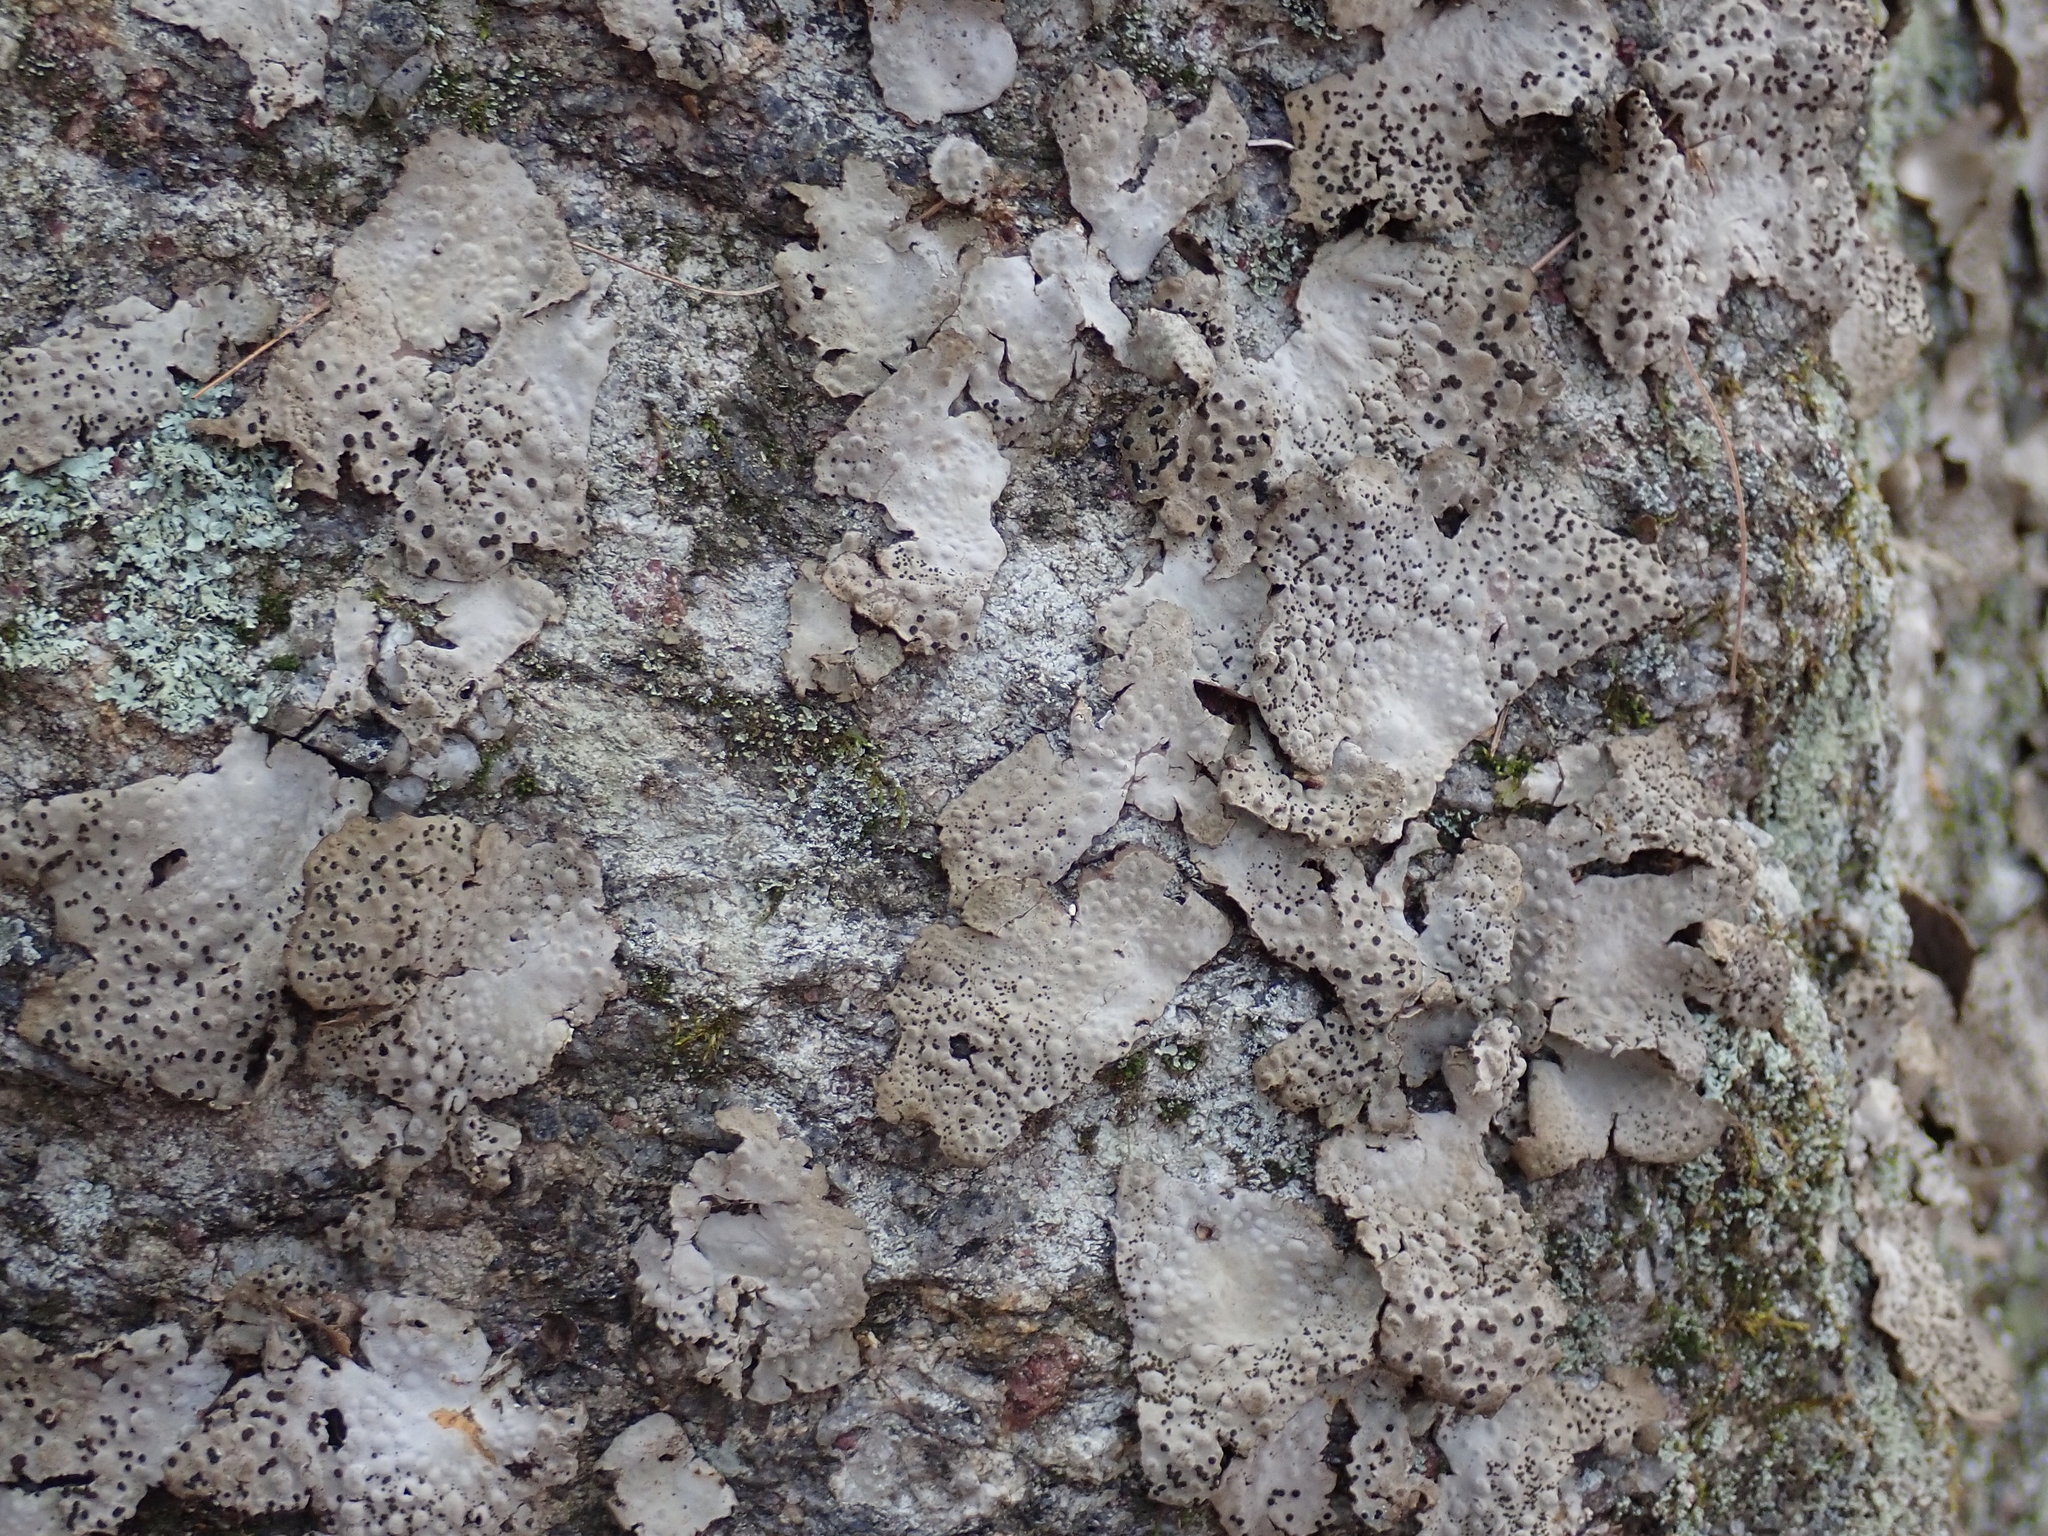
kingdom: Fungi
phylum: Ascomycota
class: Lecanoromycetes
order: Umbilicariales
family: Umbilicariaceae
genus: Lasallia
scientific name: Lasallia papulosa
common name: Common toadskin lichen
